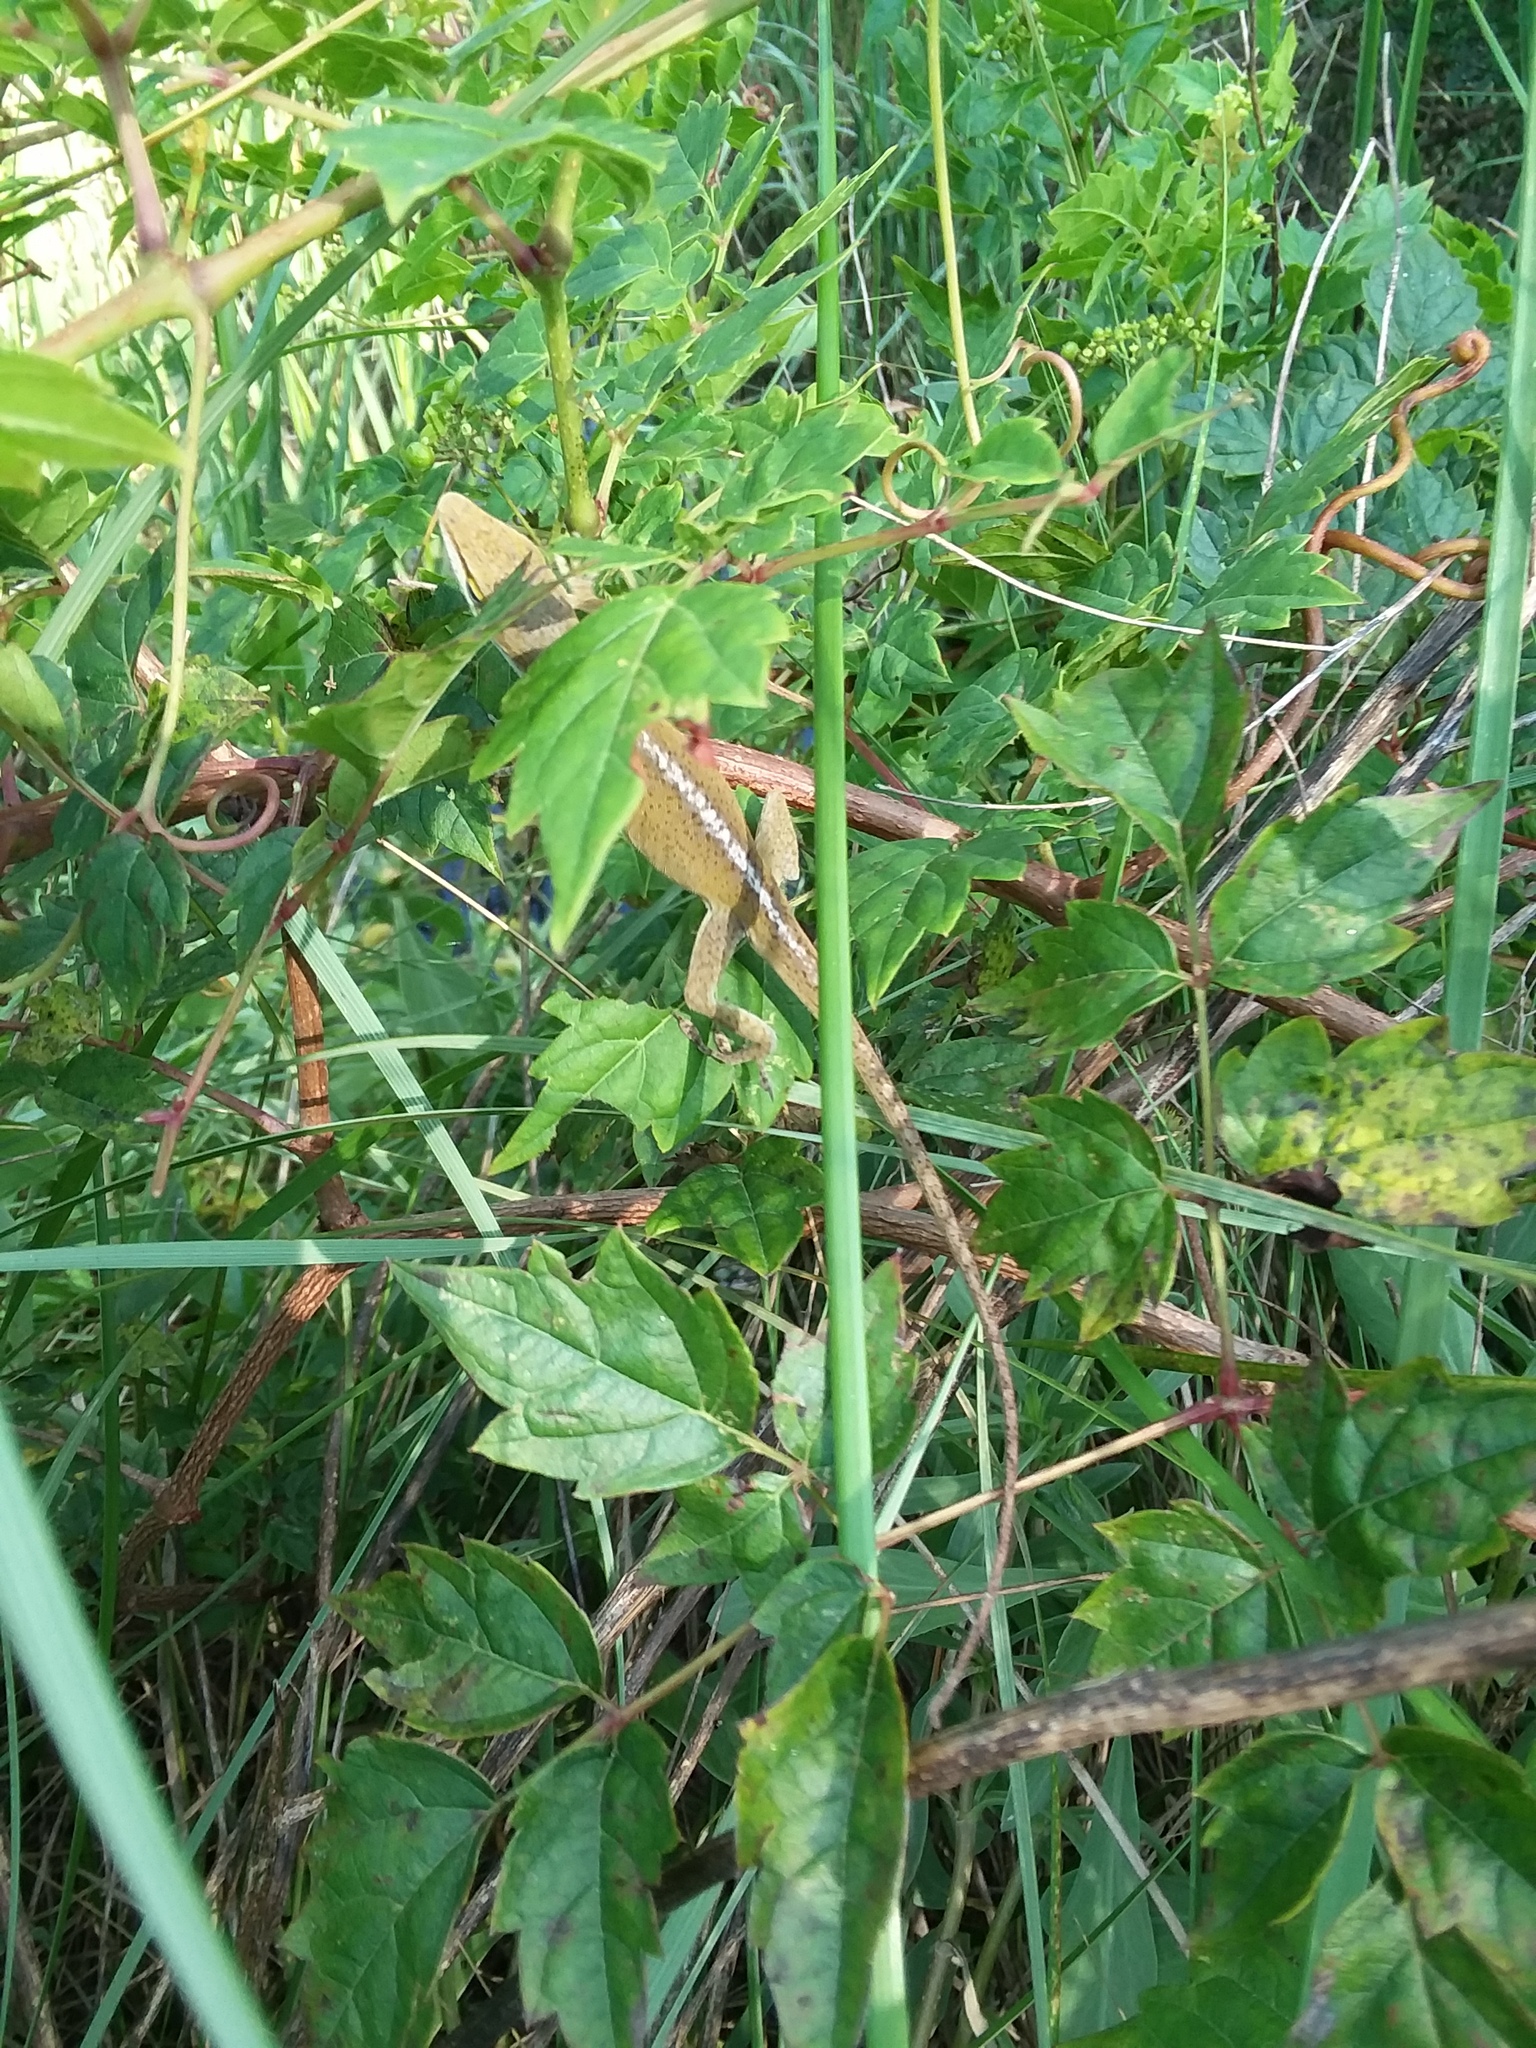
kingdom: Animalia
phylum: Chordata
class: Squamata
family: Dactyloidae
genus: Anolis
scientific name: Anolis carolinensis
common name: Green anole
